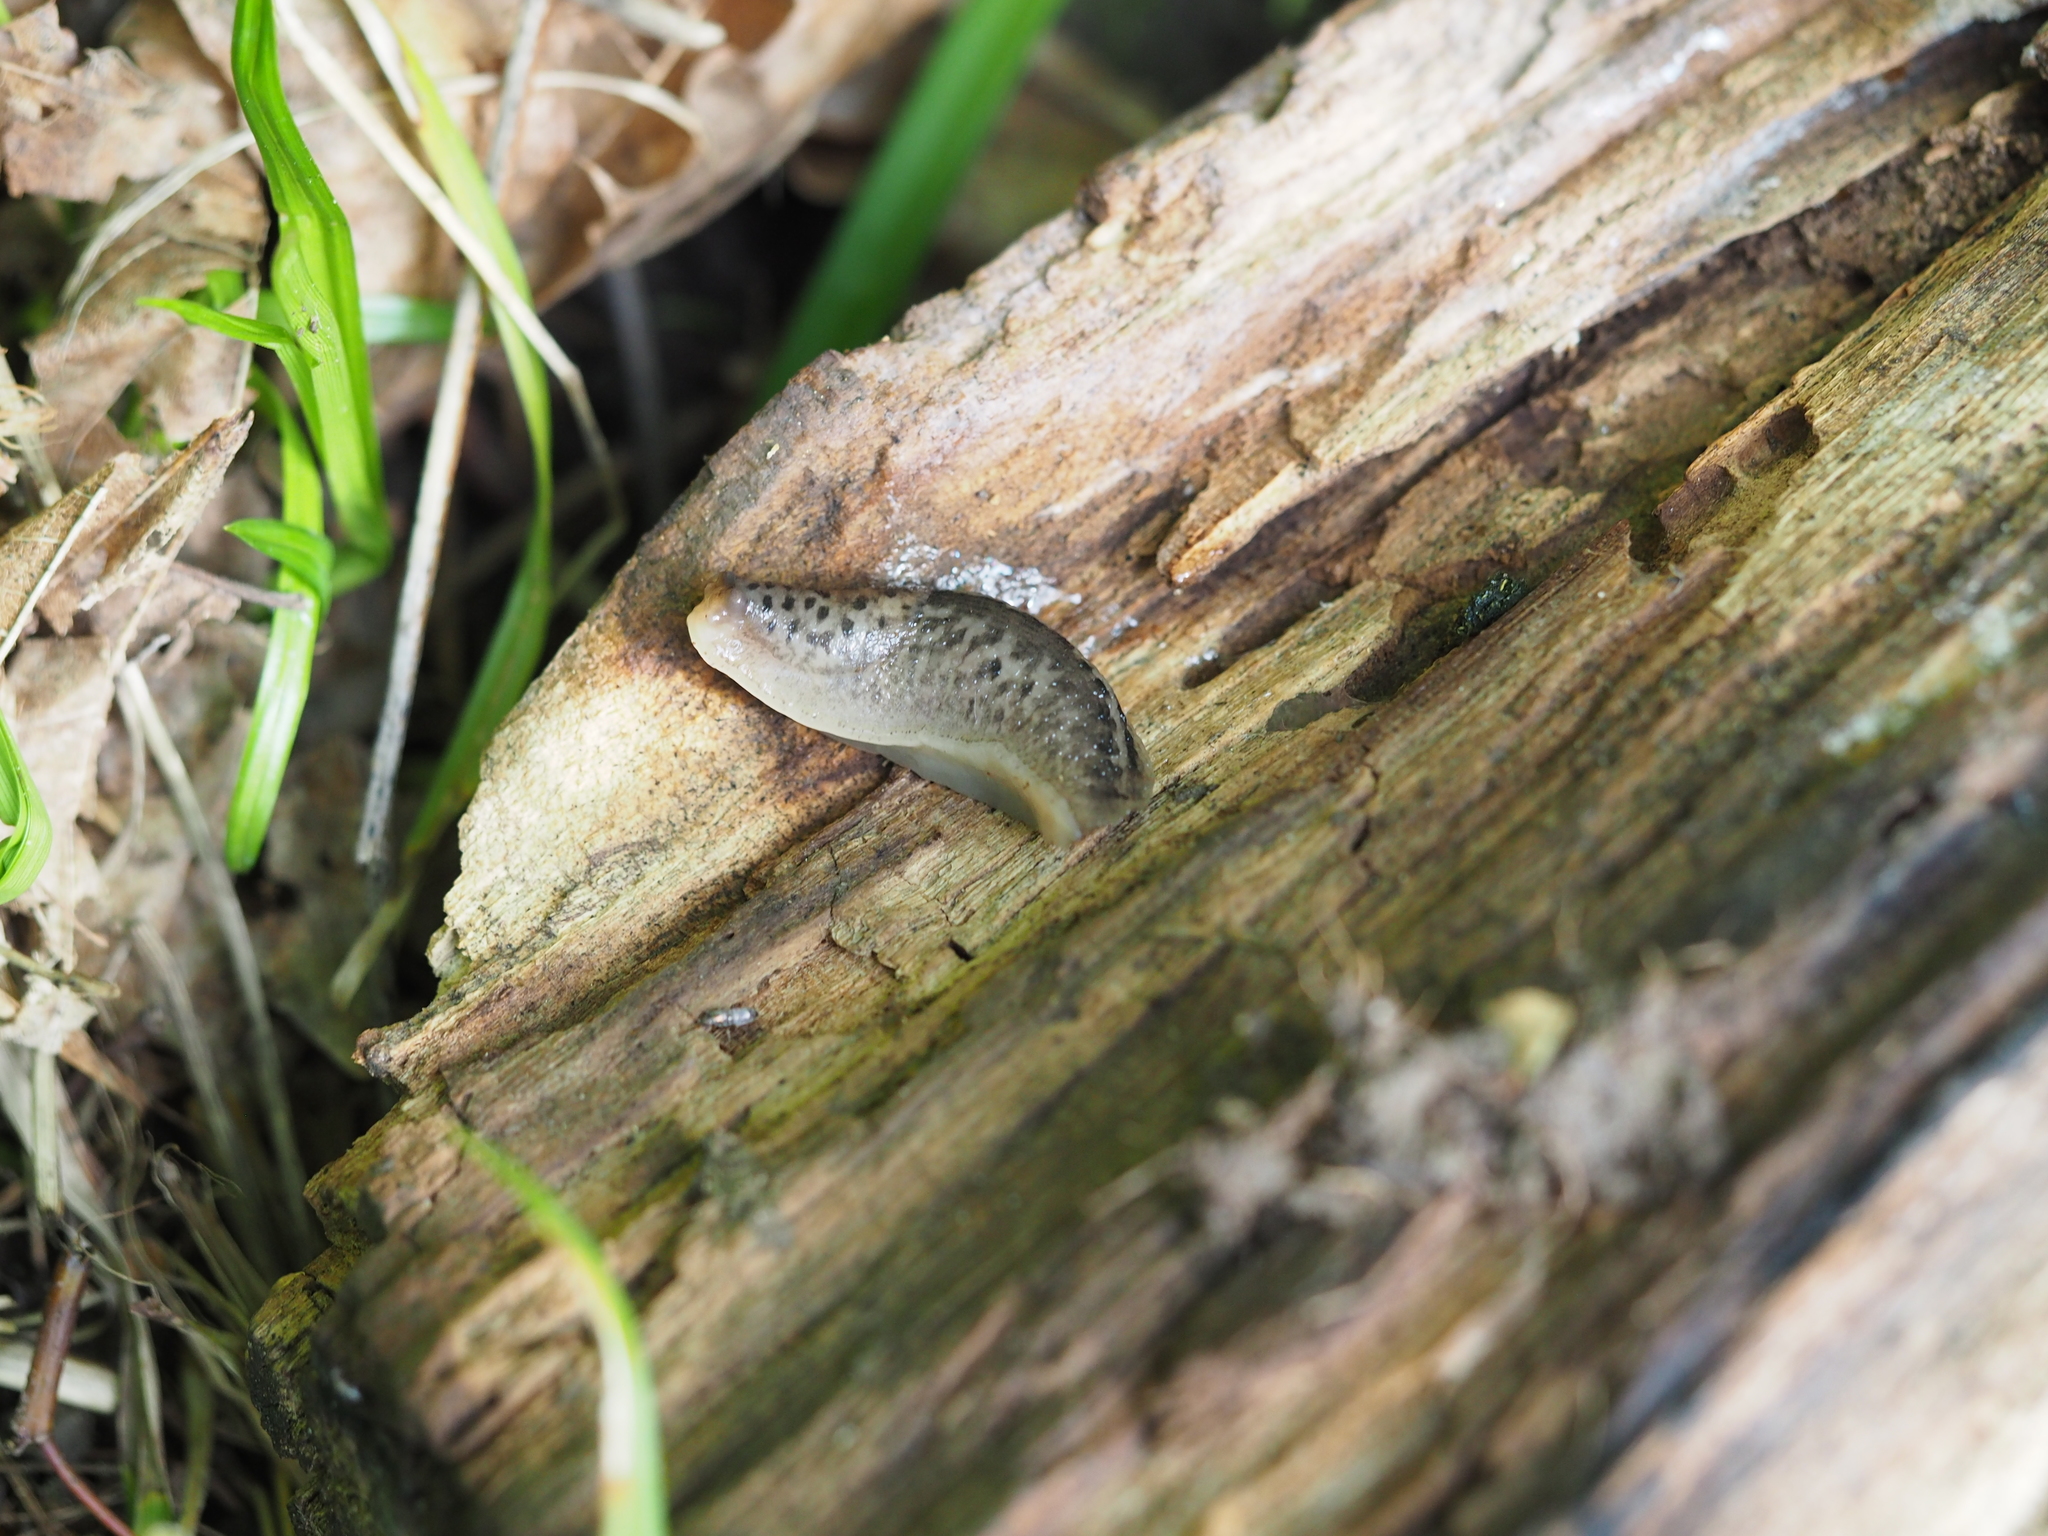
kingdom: Animalia
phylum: Mollusca
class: Gastropoda
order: Stylommatophora
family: Limacidae
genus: Limax
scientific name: Limax maximus
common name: Great grey slug
